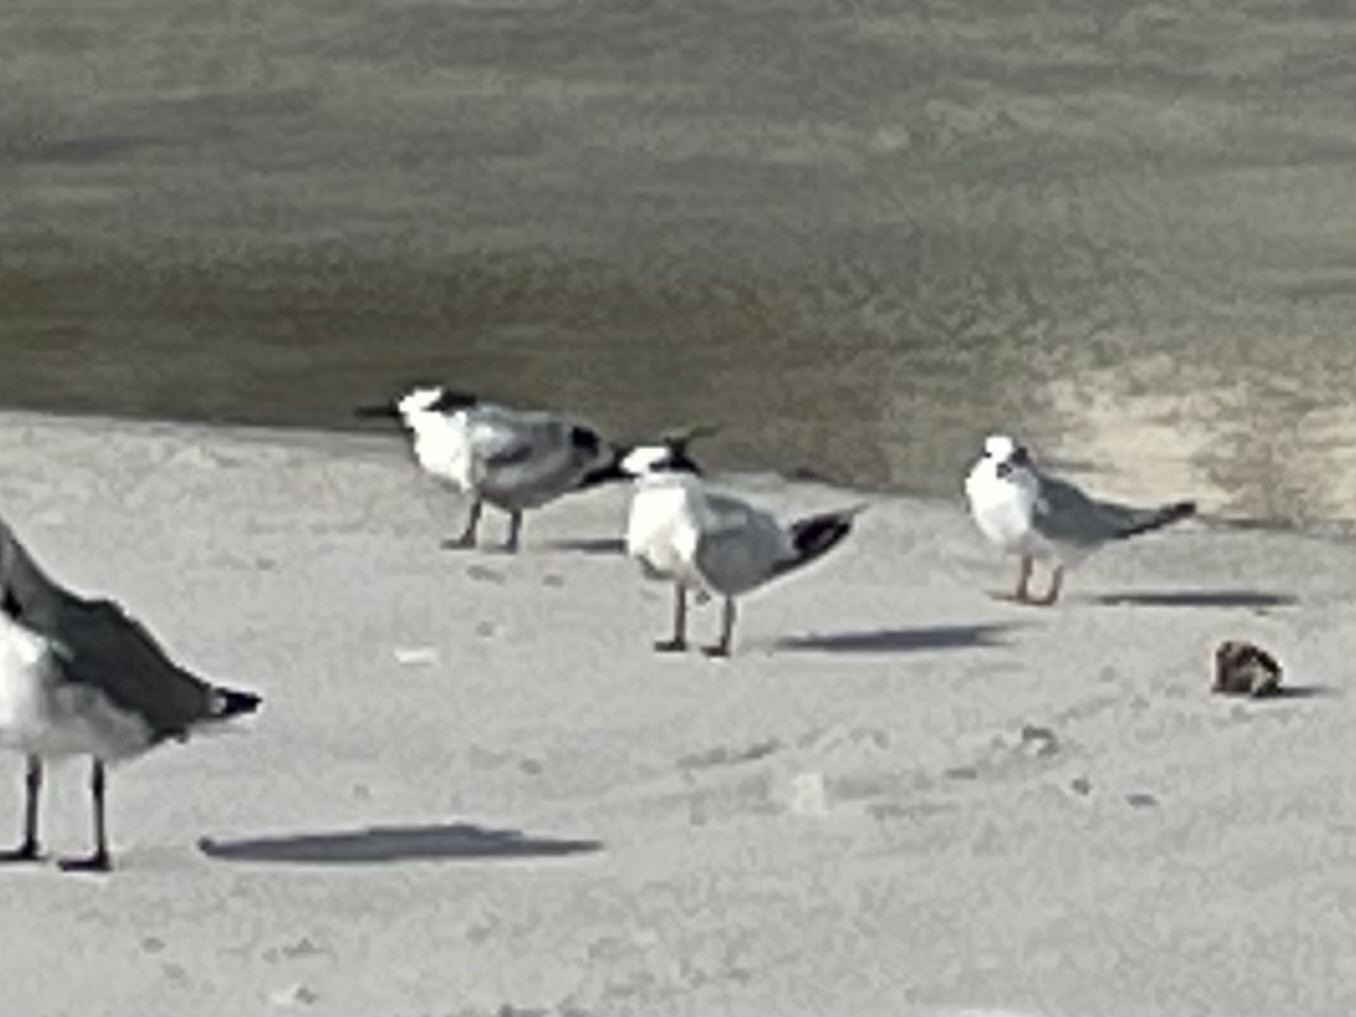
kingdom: Animalia
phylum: Chordata
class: Aves
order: Charadriiformes
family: Laridae
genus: Thalasseus
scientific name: Thalasseus acuflavidus
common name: Cabot's tern
